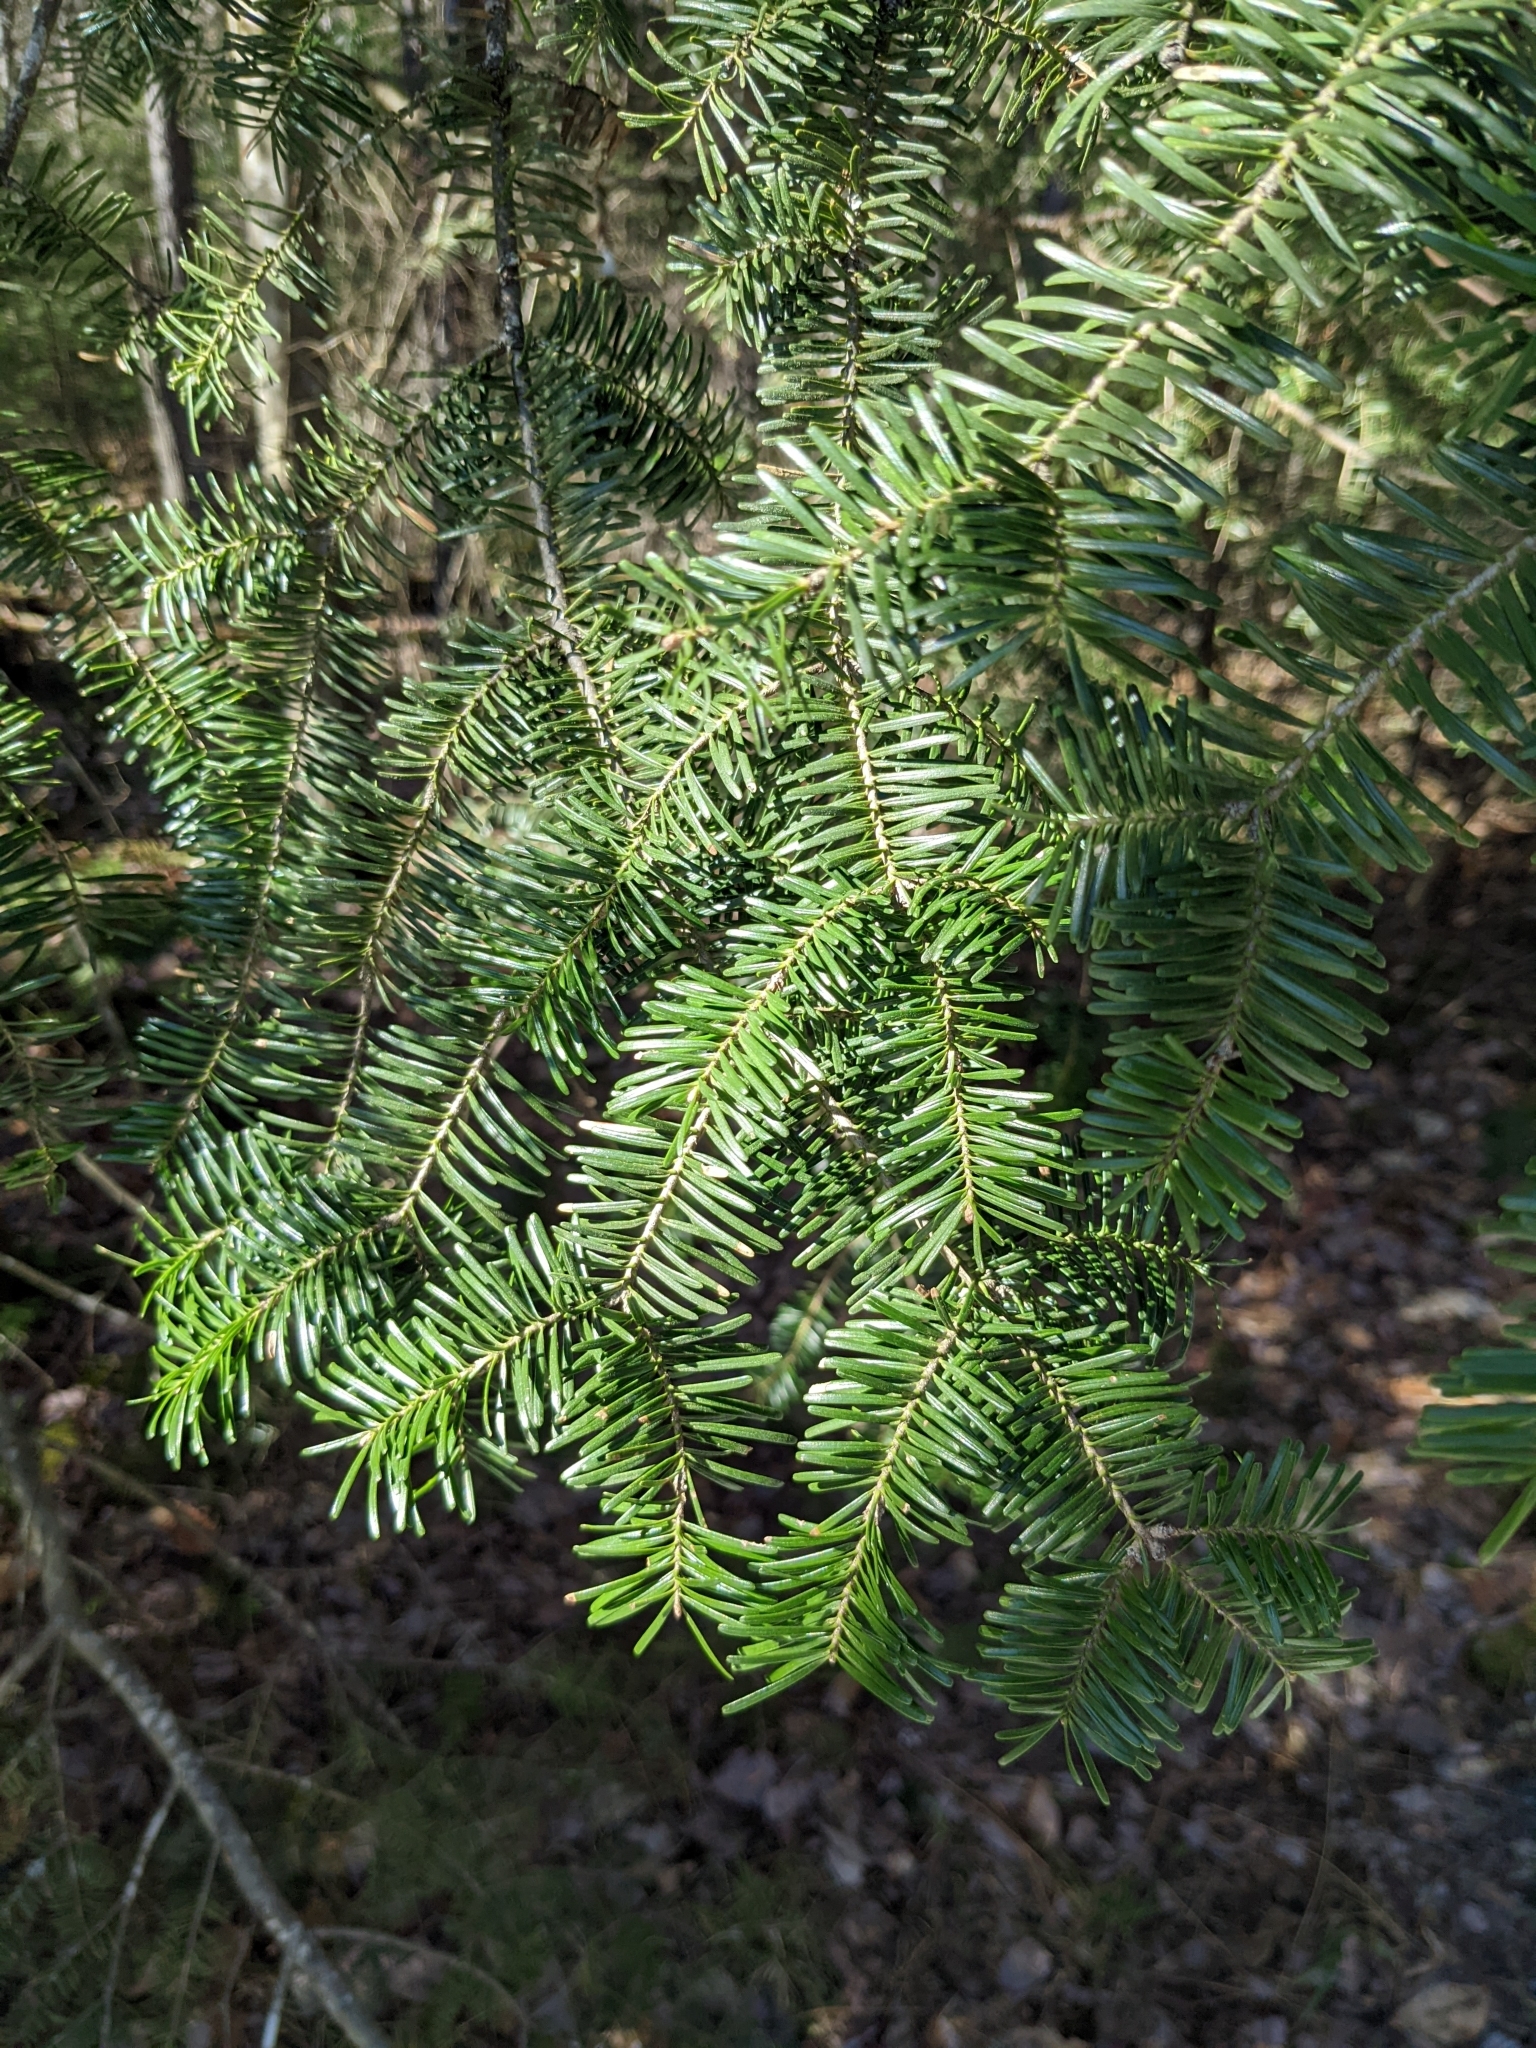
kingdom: Plantae
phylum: Tracheophyta
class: Pinopsida
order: Pinales
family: Pinaceae
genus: Abies
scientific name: Abies balsamea
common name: Balsam fir
